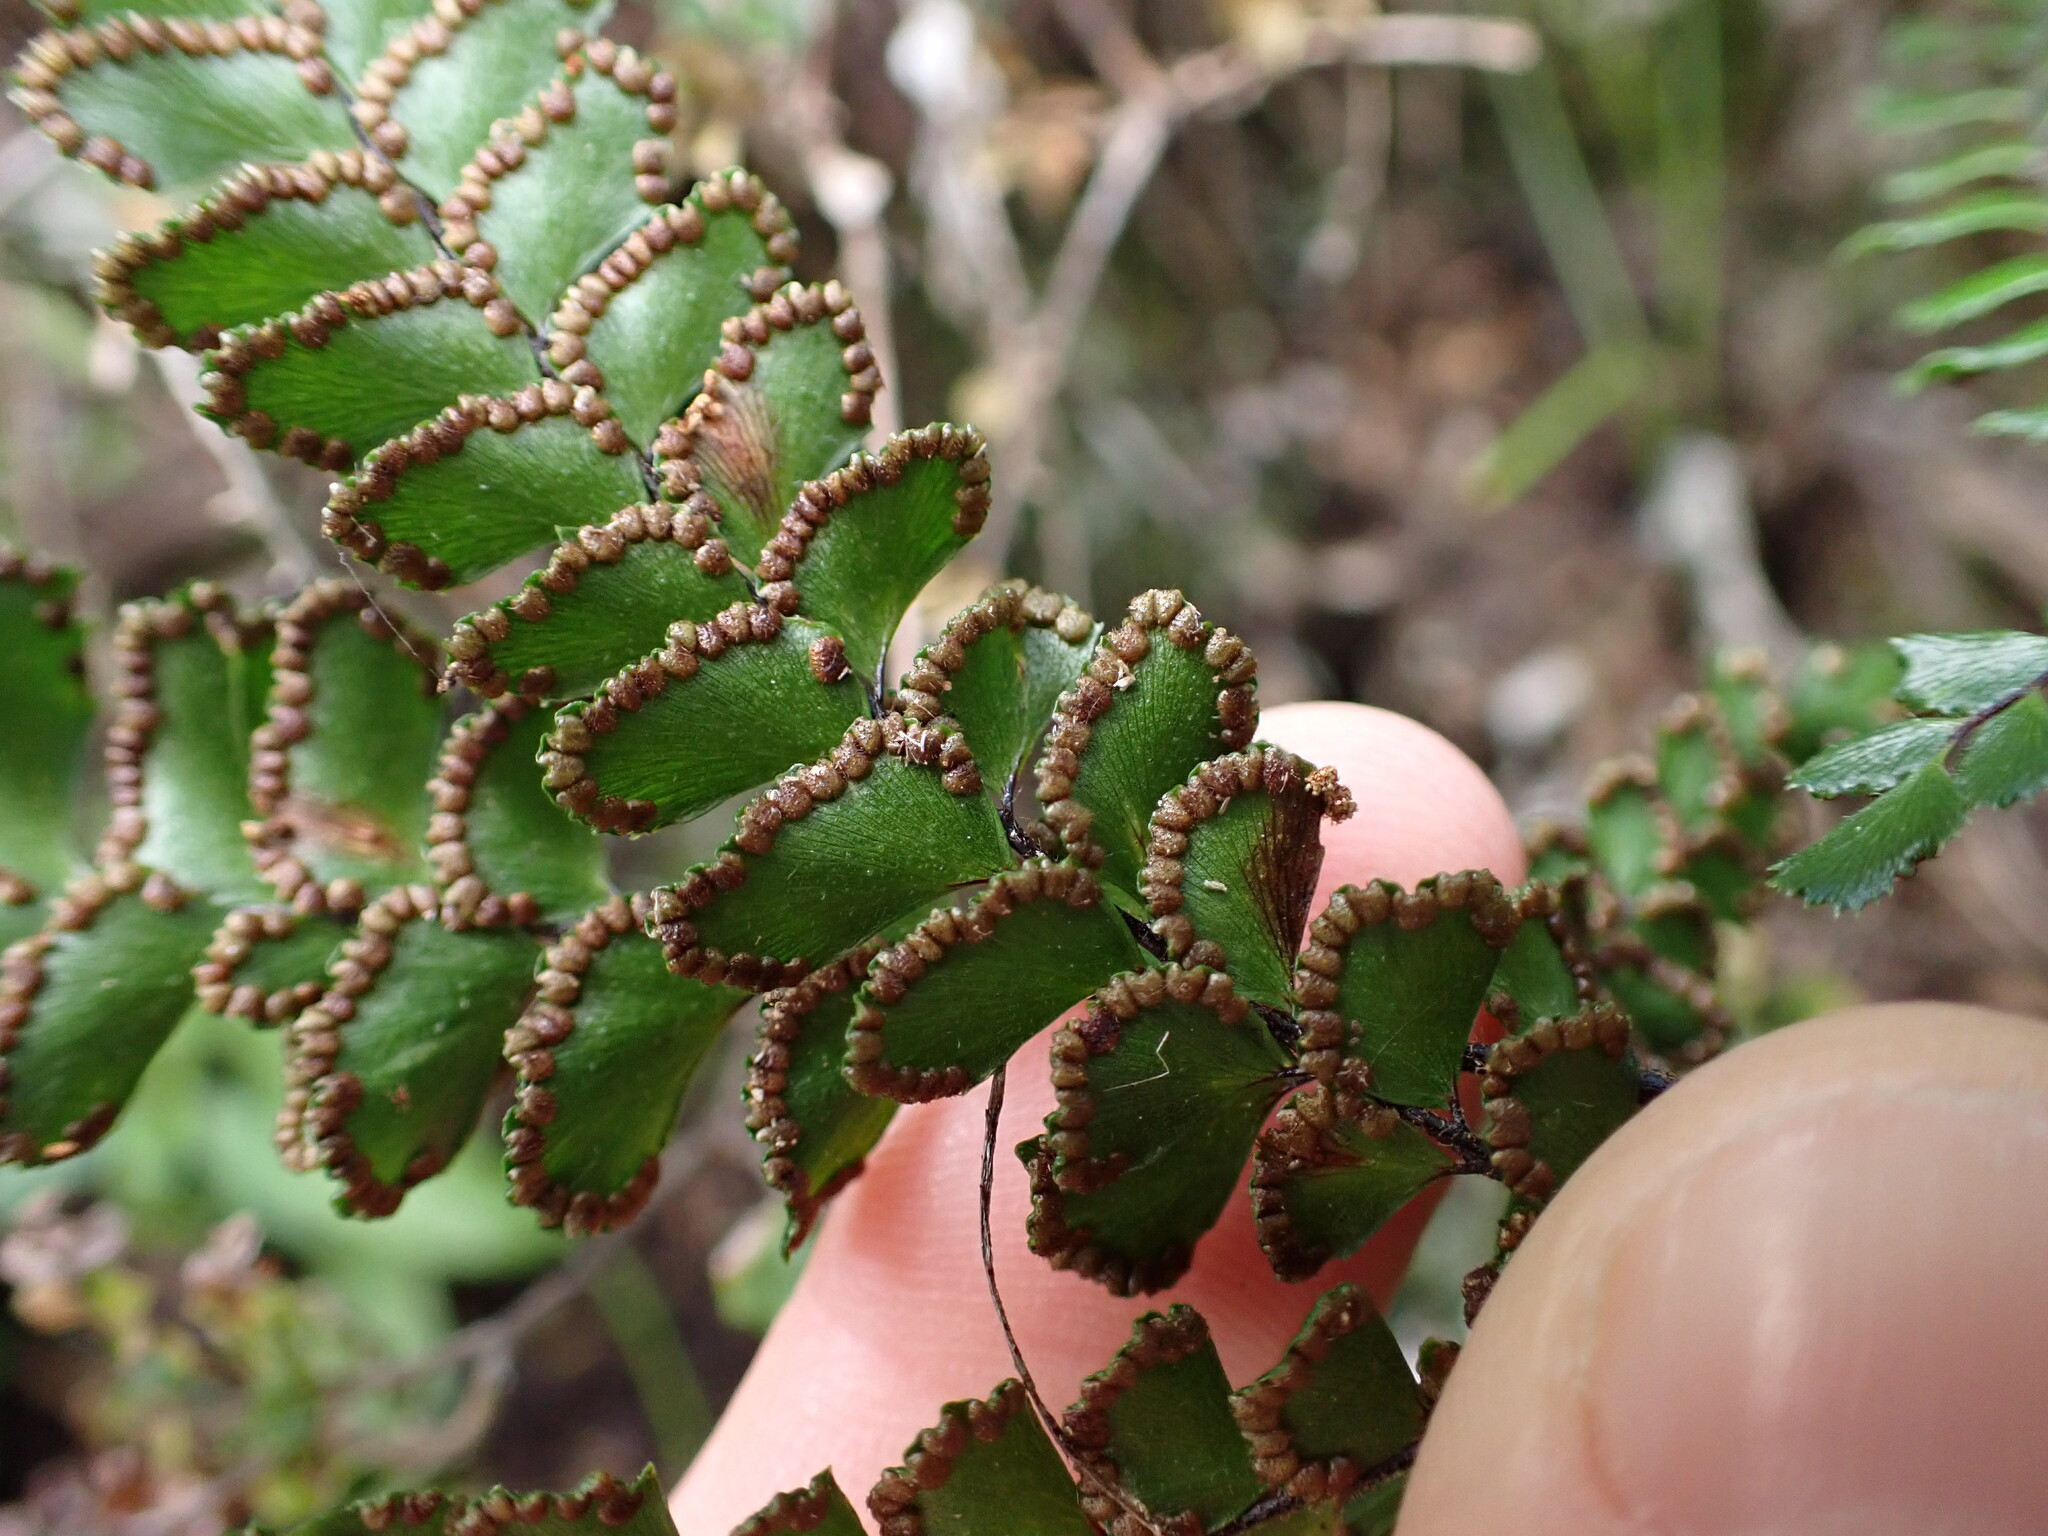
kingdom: Plantae
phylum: Tracheophyta
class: Polypodiopsida
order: Polypodiales
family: Pteridaceae
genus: Adiantum
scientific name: Adiantum hispidulum
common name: Rough maidenhair
